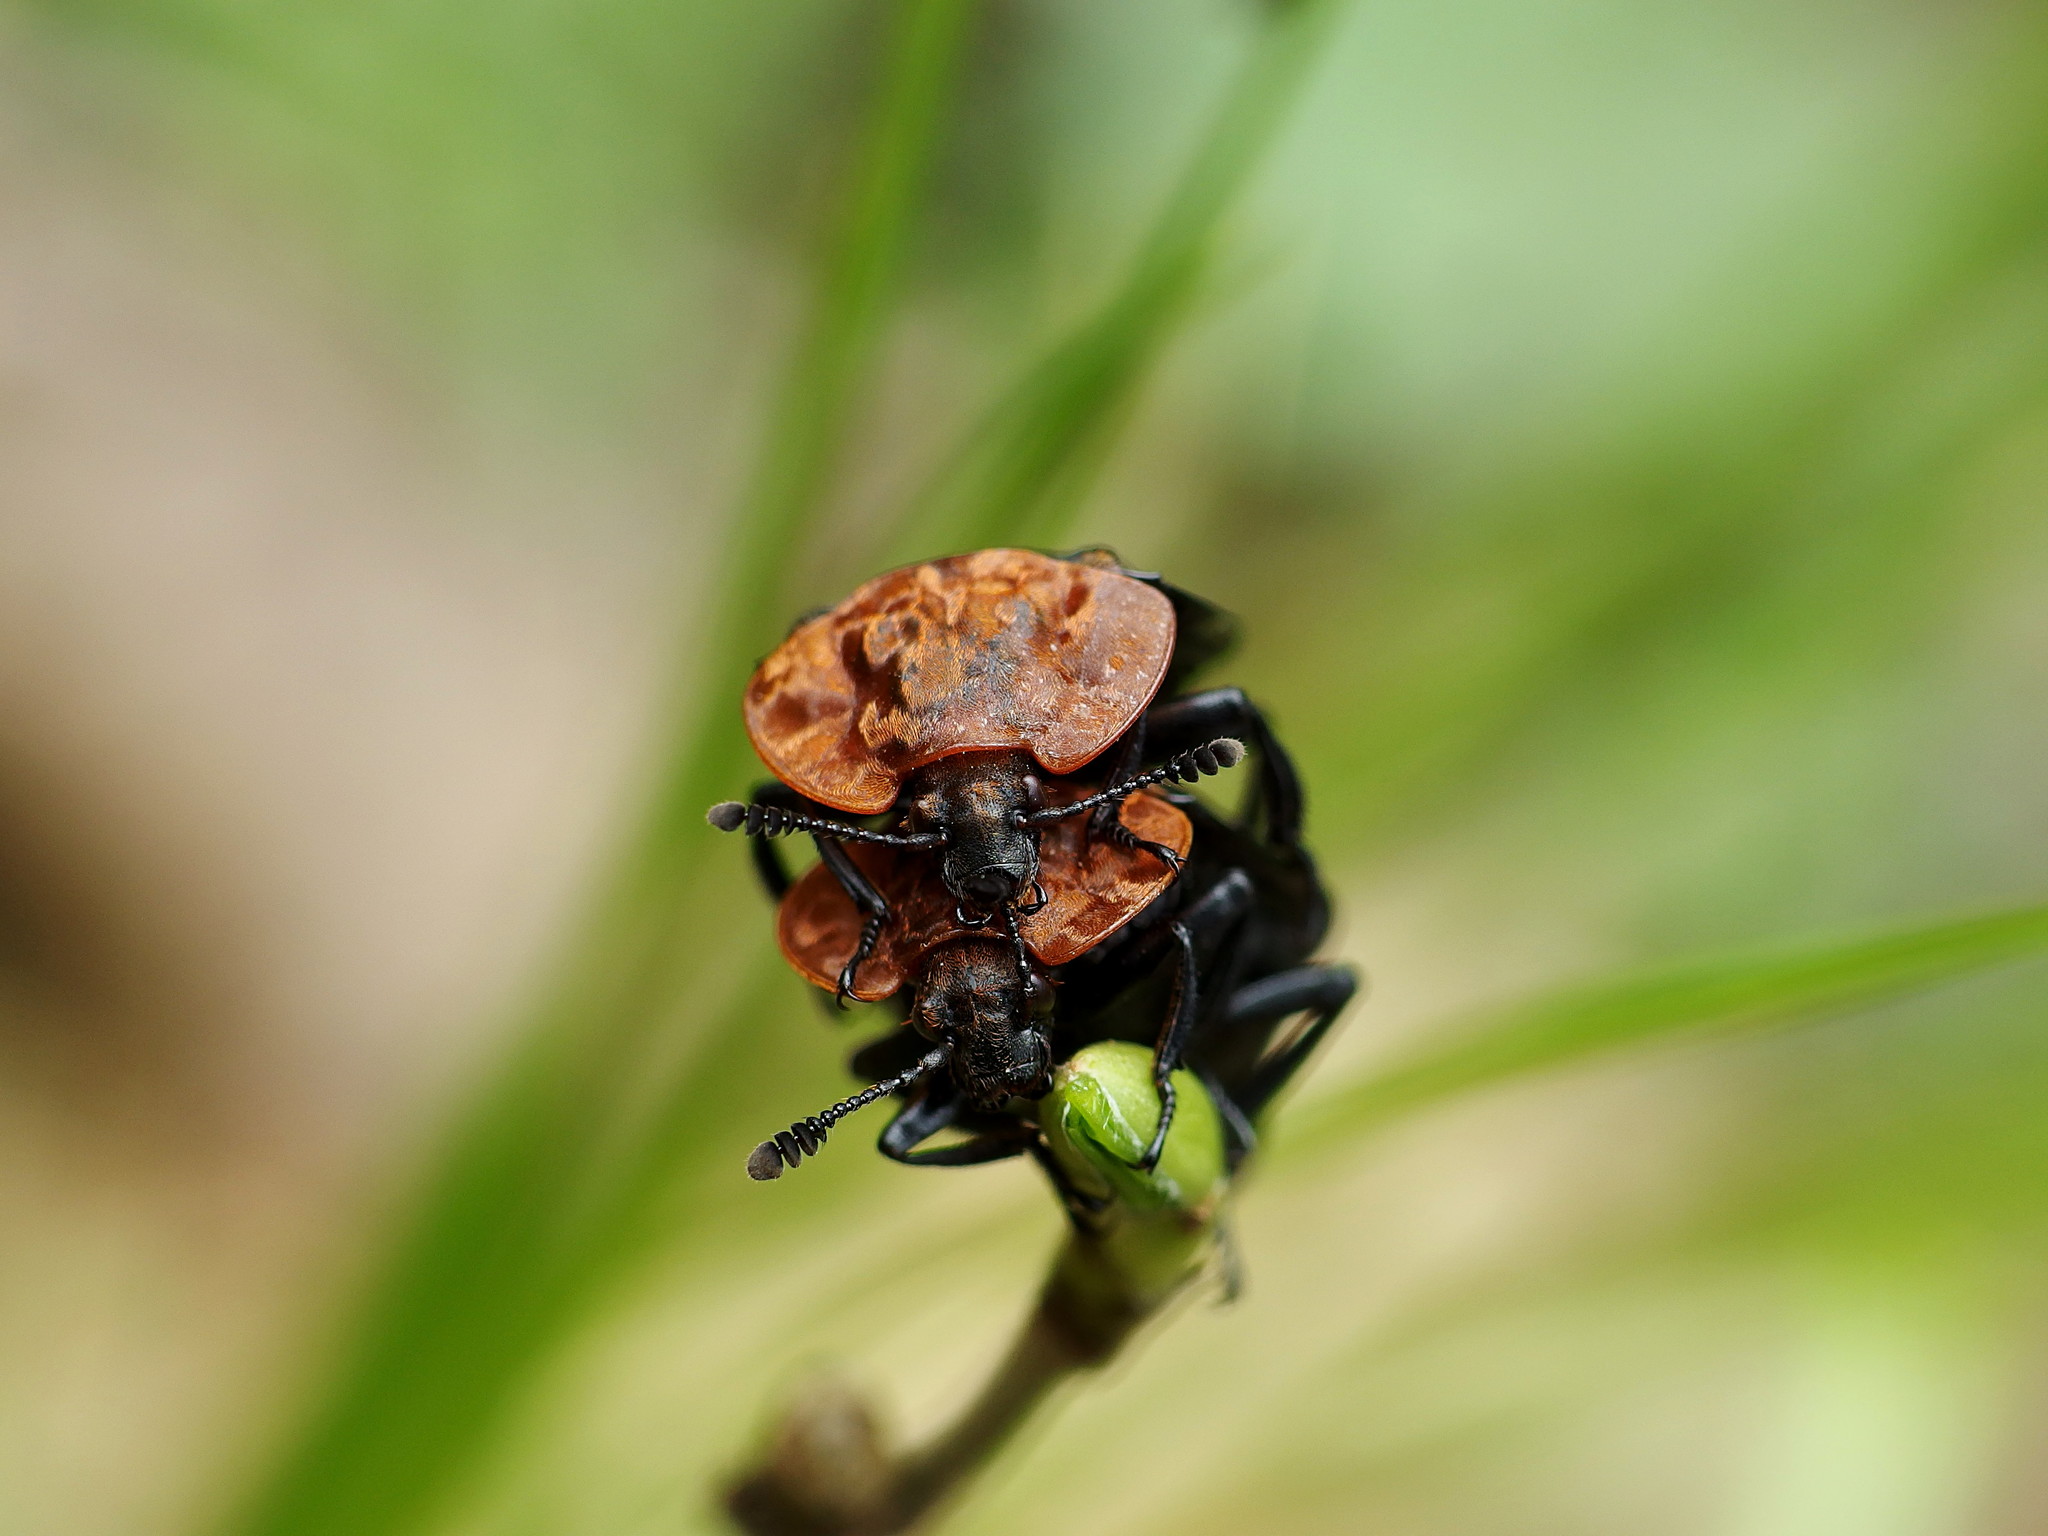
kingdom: Animalia
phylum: Arthropoda
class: Insecta
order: Coleoptera
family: Staphylinidae
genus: Oiceoptoma
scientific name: Oiceoptoma thoracicum
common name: Red-breasted carrion beetle
